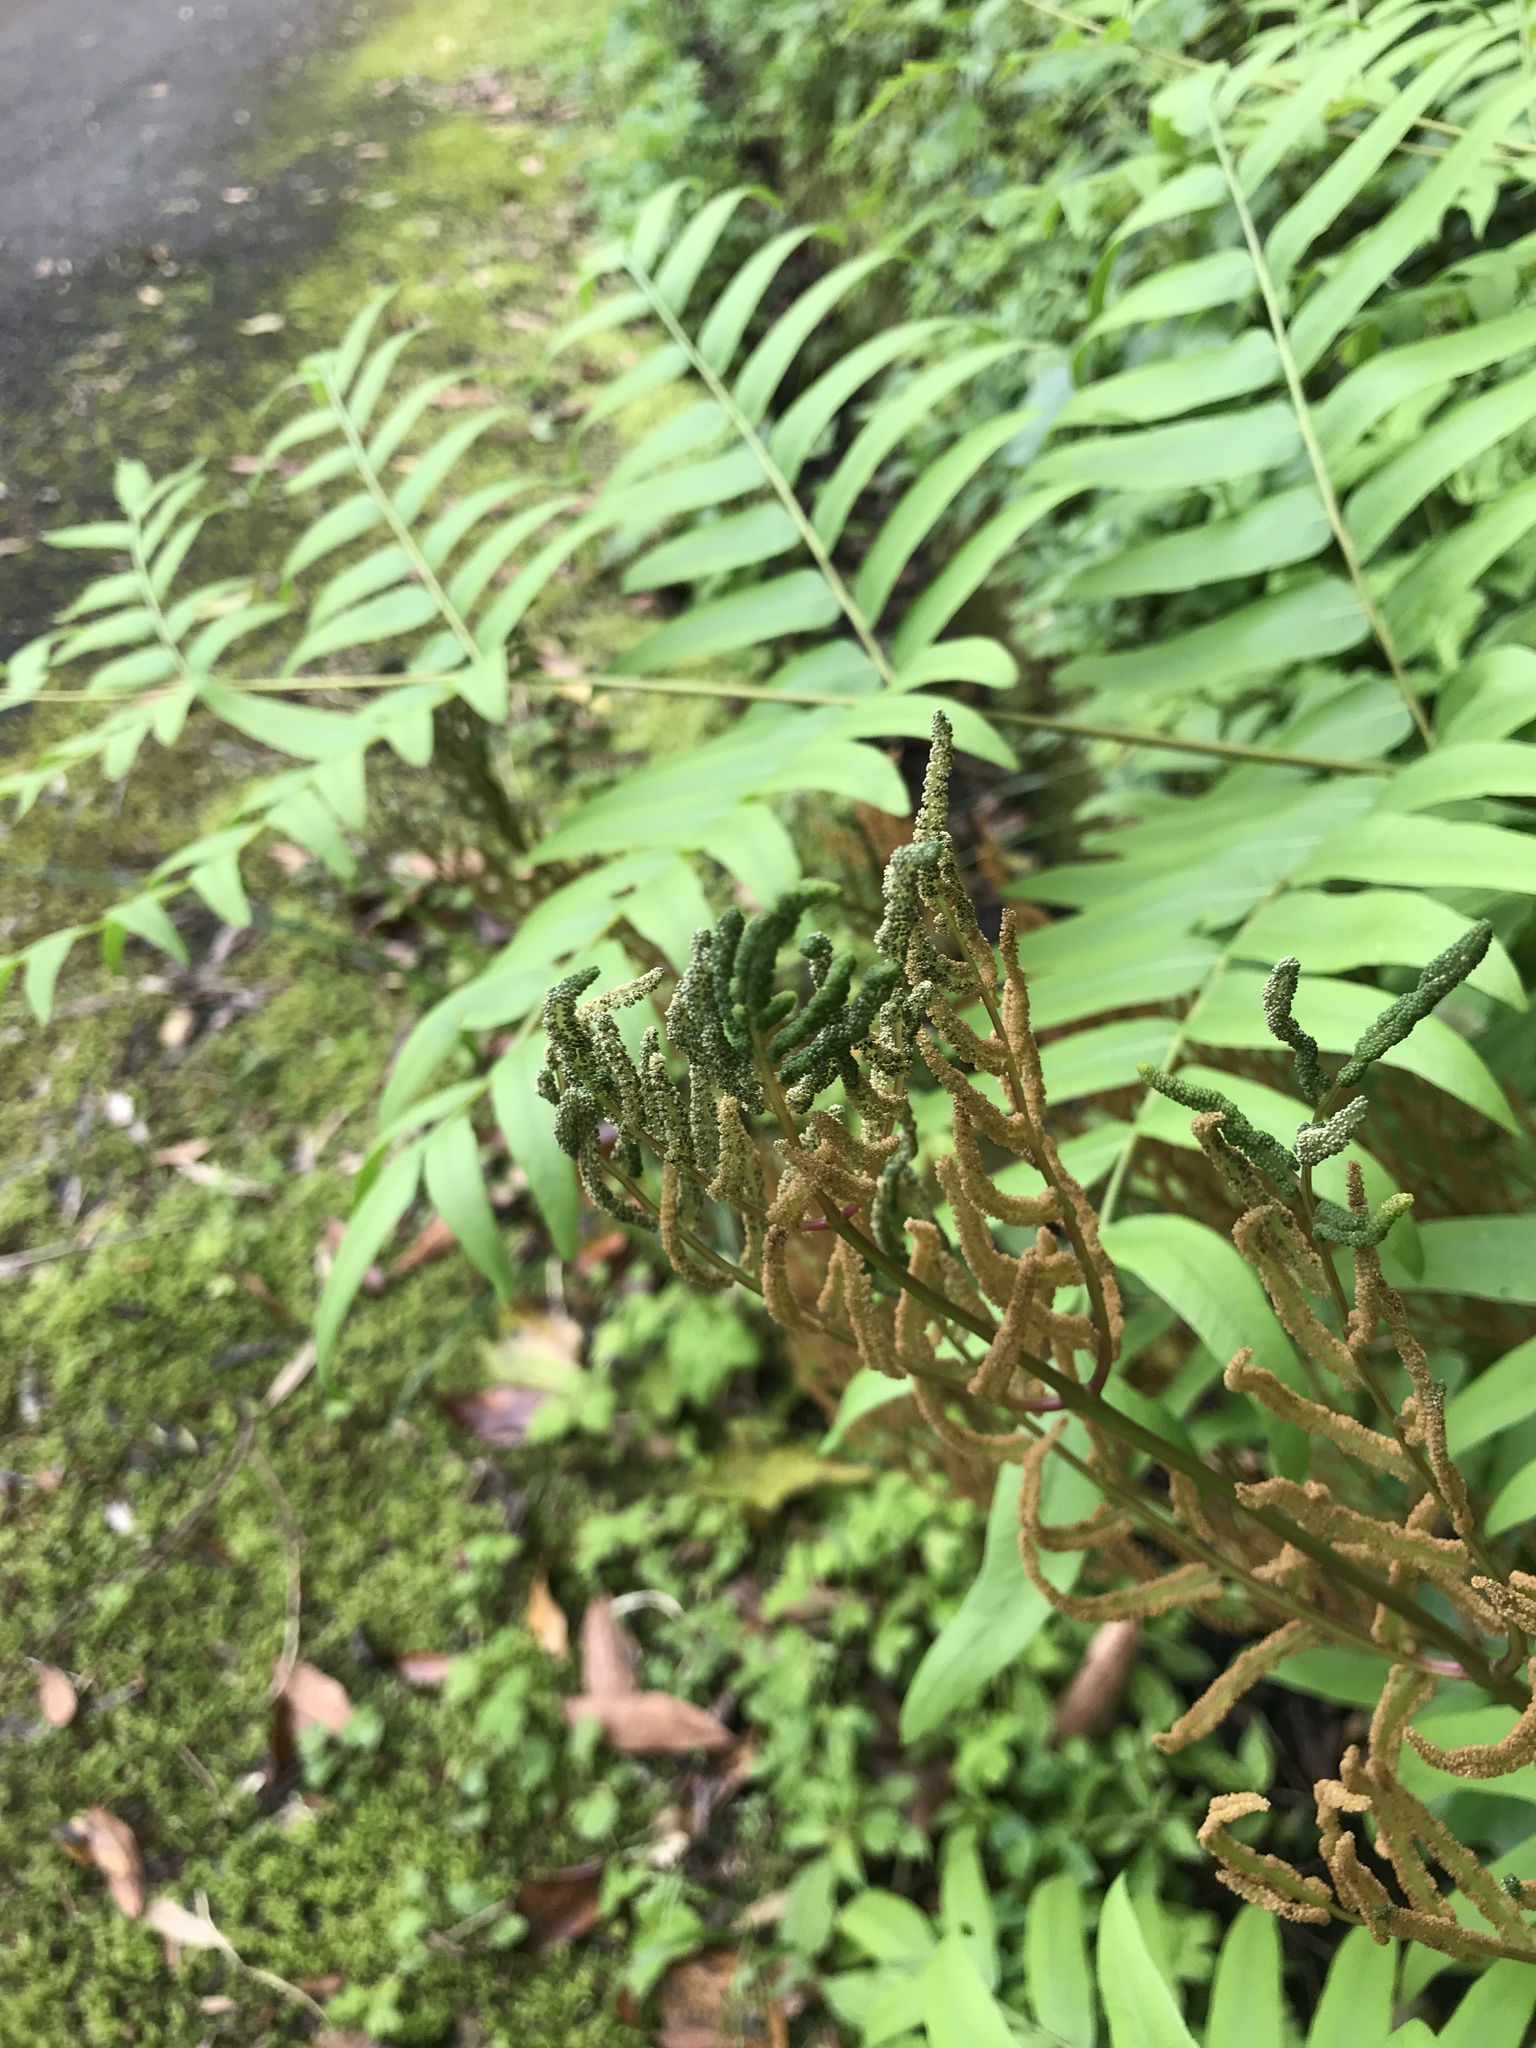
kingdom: Plantae
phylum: Tracheophyta
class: Polypodiopsida
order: Osmundales
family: Osmundaceae
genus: Osmunda
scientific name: Osmunda japonica
